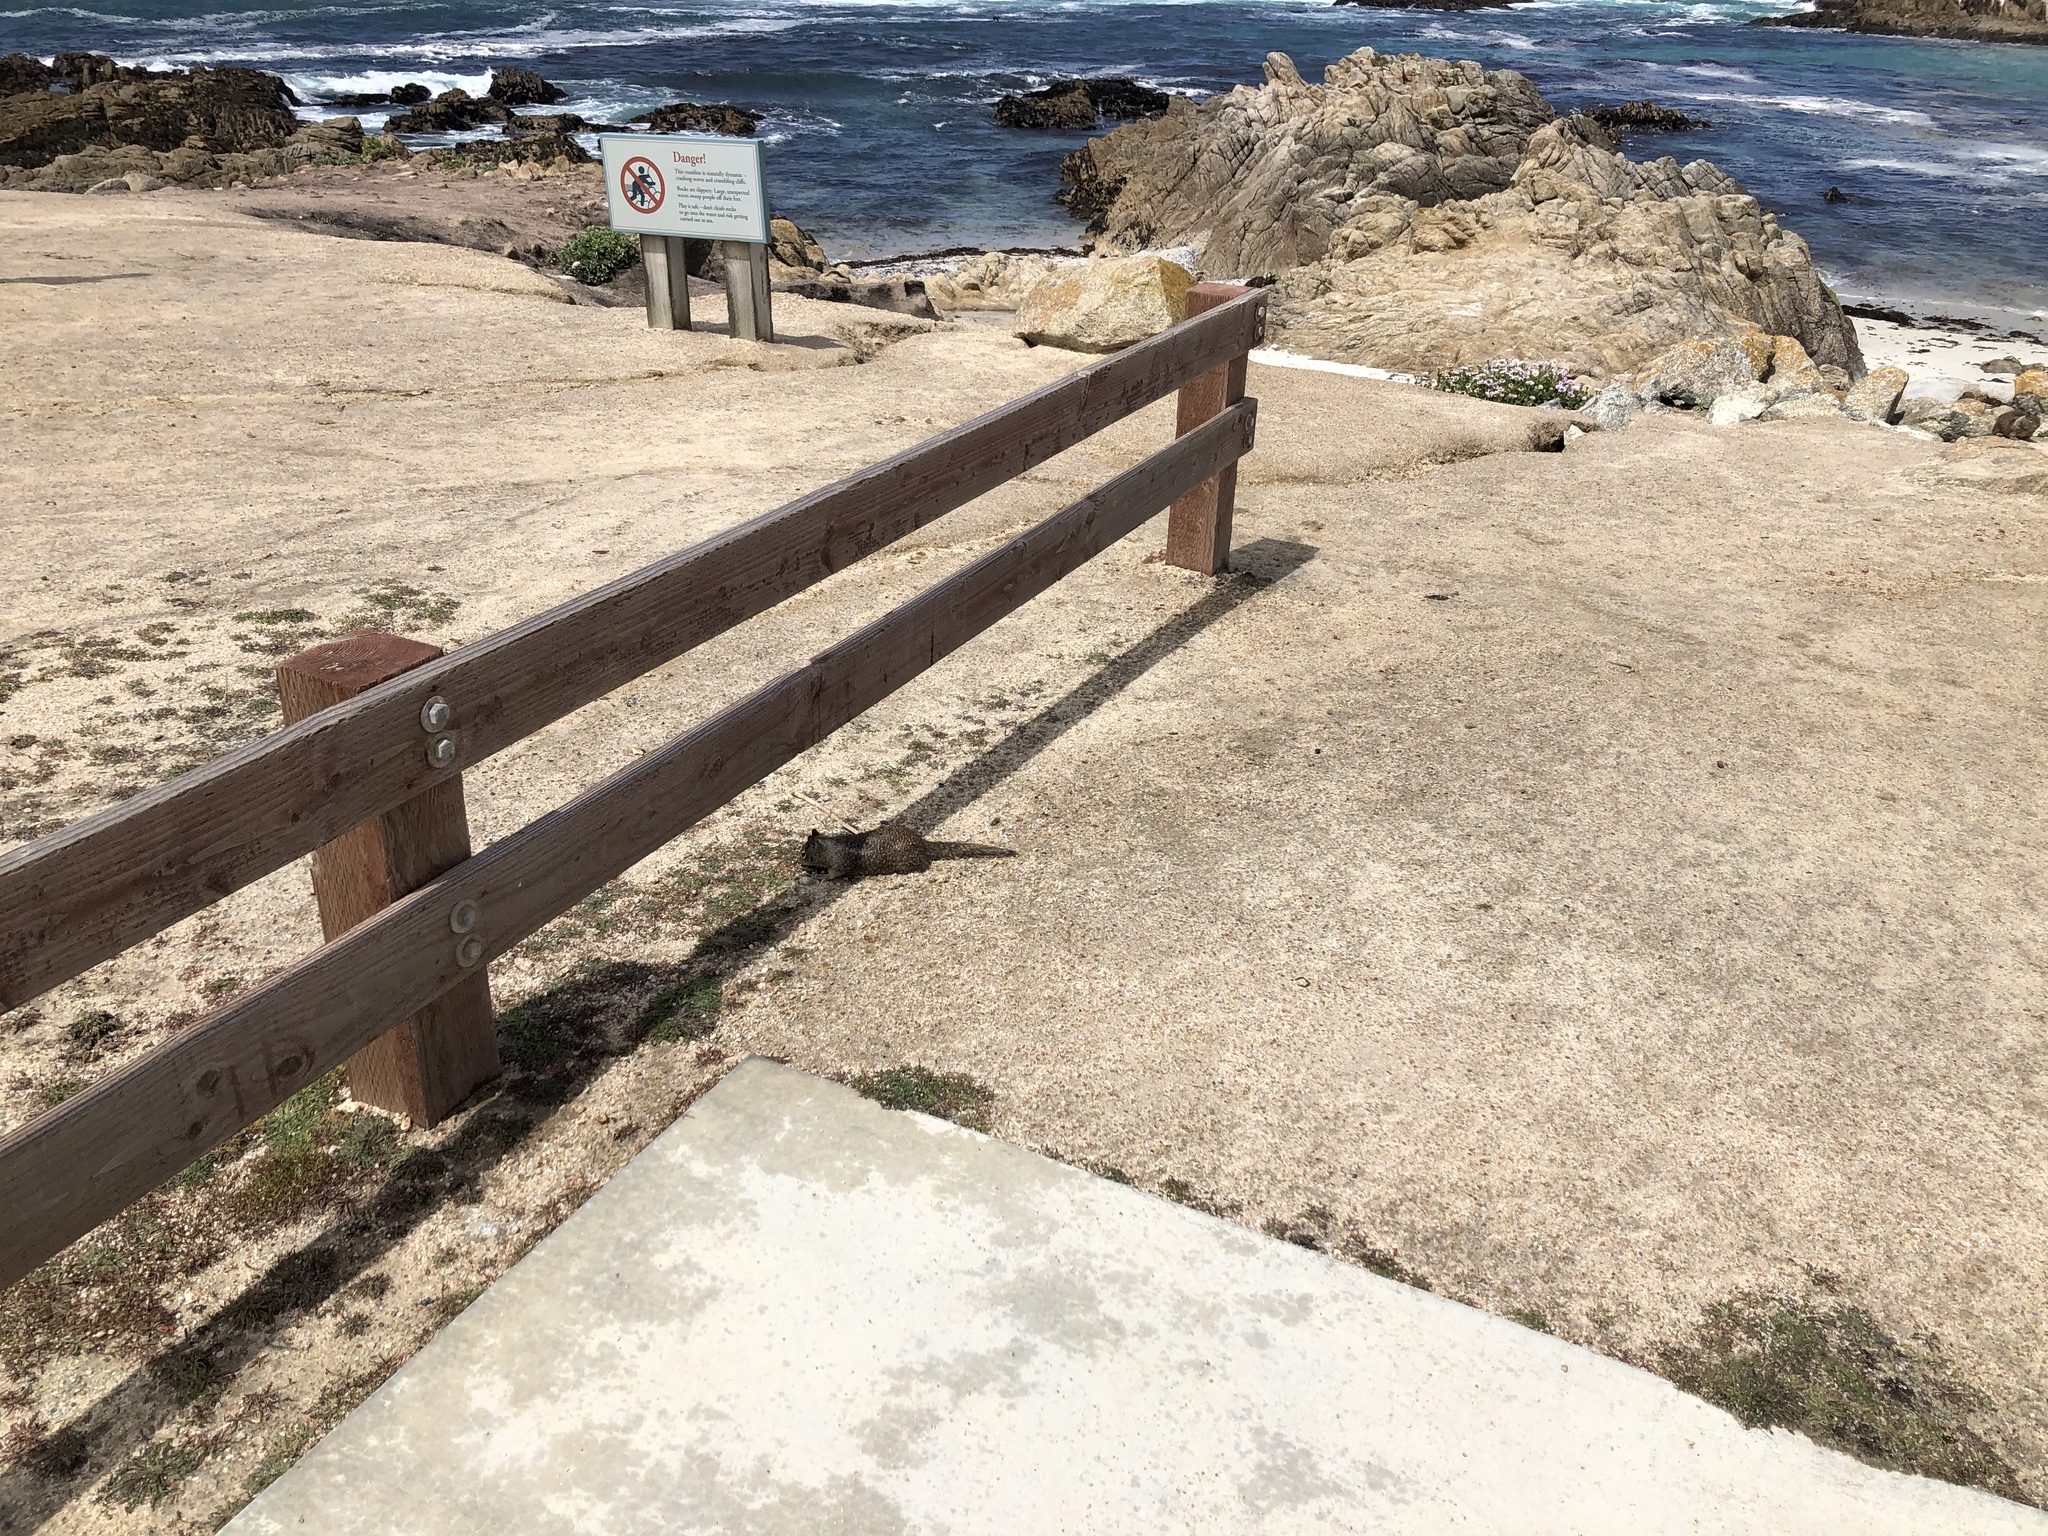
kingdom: Animalia
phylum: Chordata
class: Mammalia
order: Rodentia
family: Sciuridae
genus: Otospermophilus
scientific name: Otospermophilus beecheyi
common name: California ground squirrel
